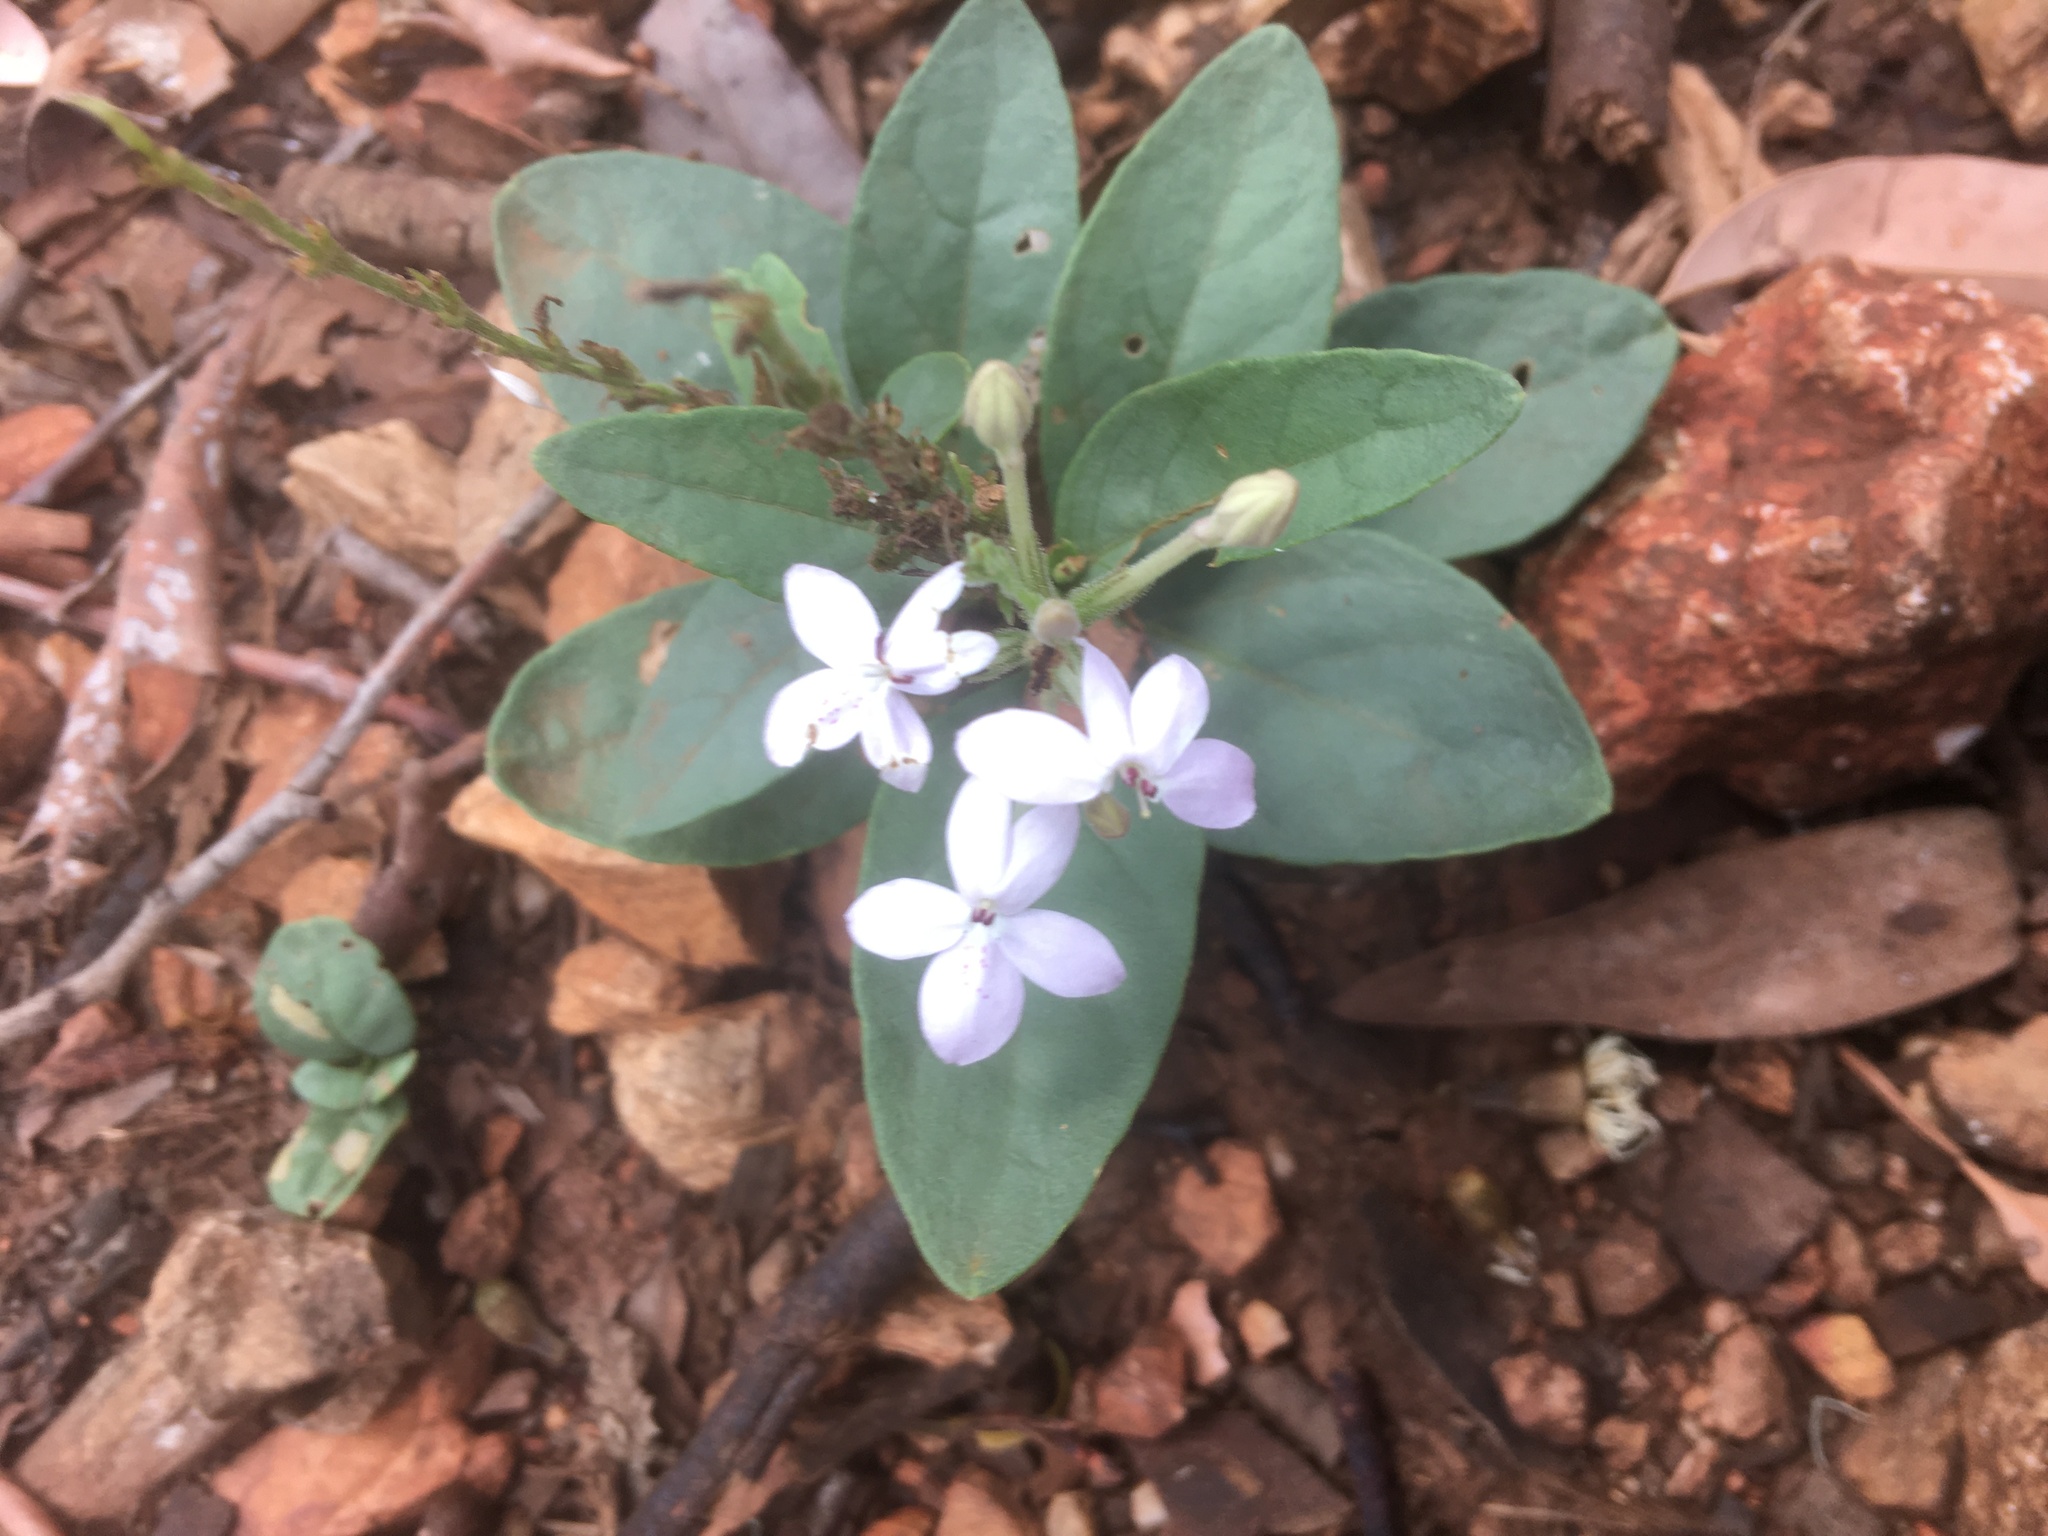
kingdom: Plantae
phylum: Tracheophyta
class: Magnoliopsida
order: Lamiales
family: Acanthaceae
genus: Pseuderanthemum
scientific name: Pseuderanthemum variabile
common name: Night and afternoon
